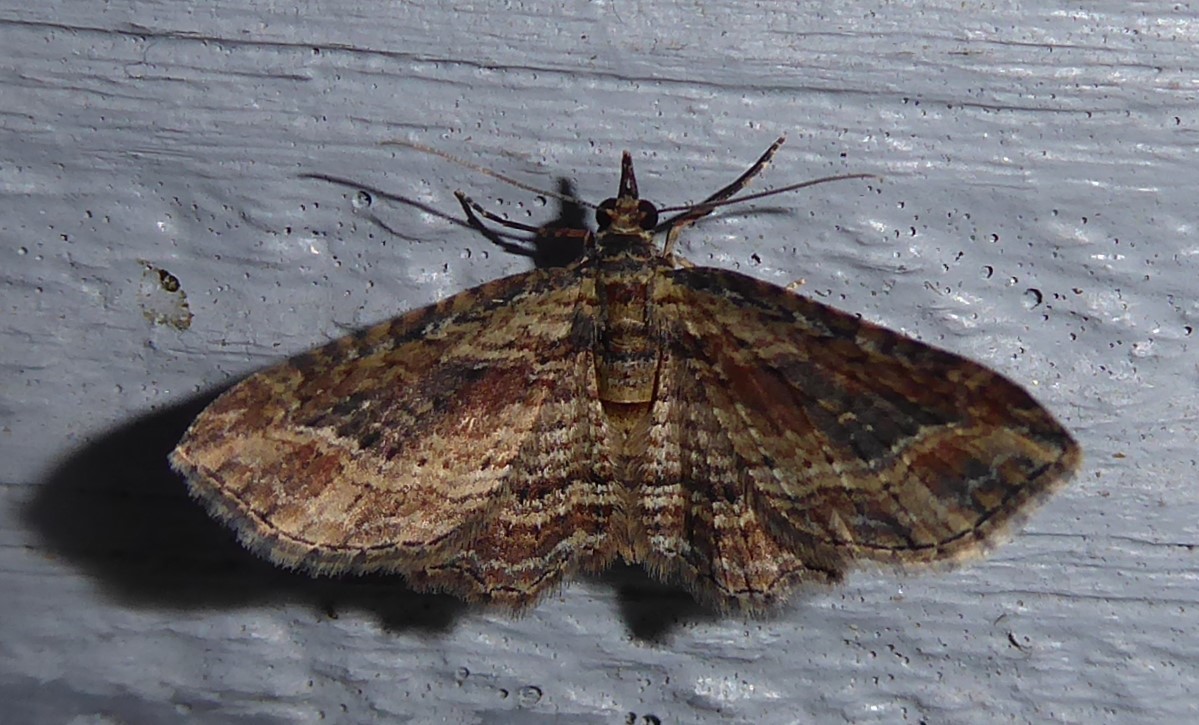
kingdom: Animalia
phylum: Arthropoda
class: Insecta
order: Lepidoptera
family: Geometridae
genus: Chloroclystis
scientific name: Chloroclystis filata
